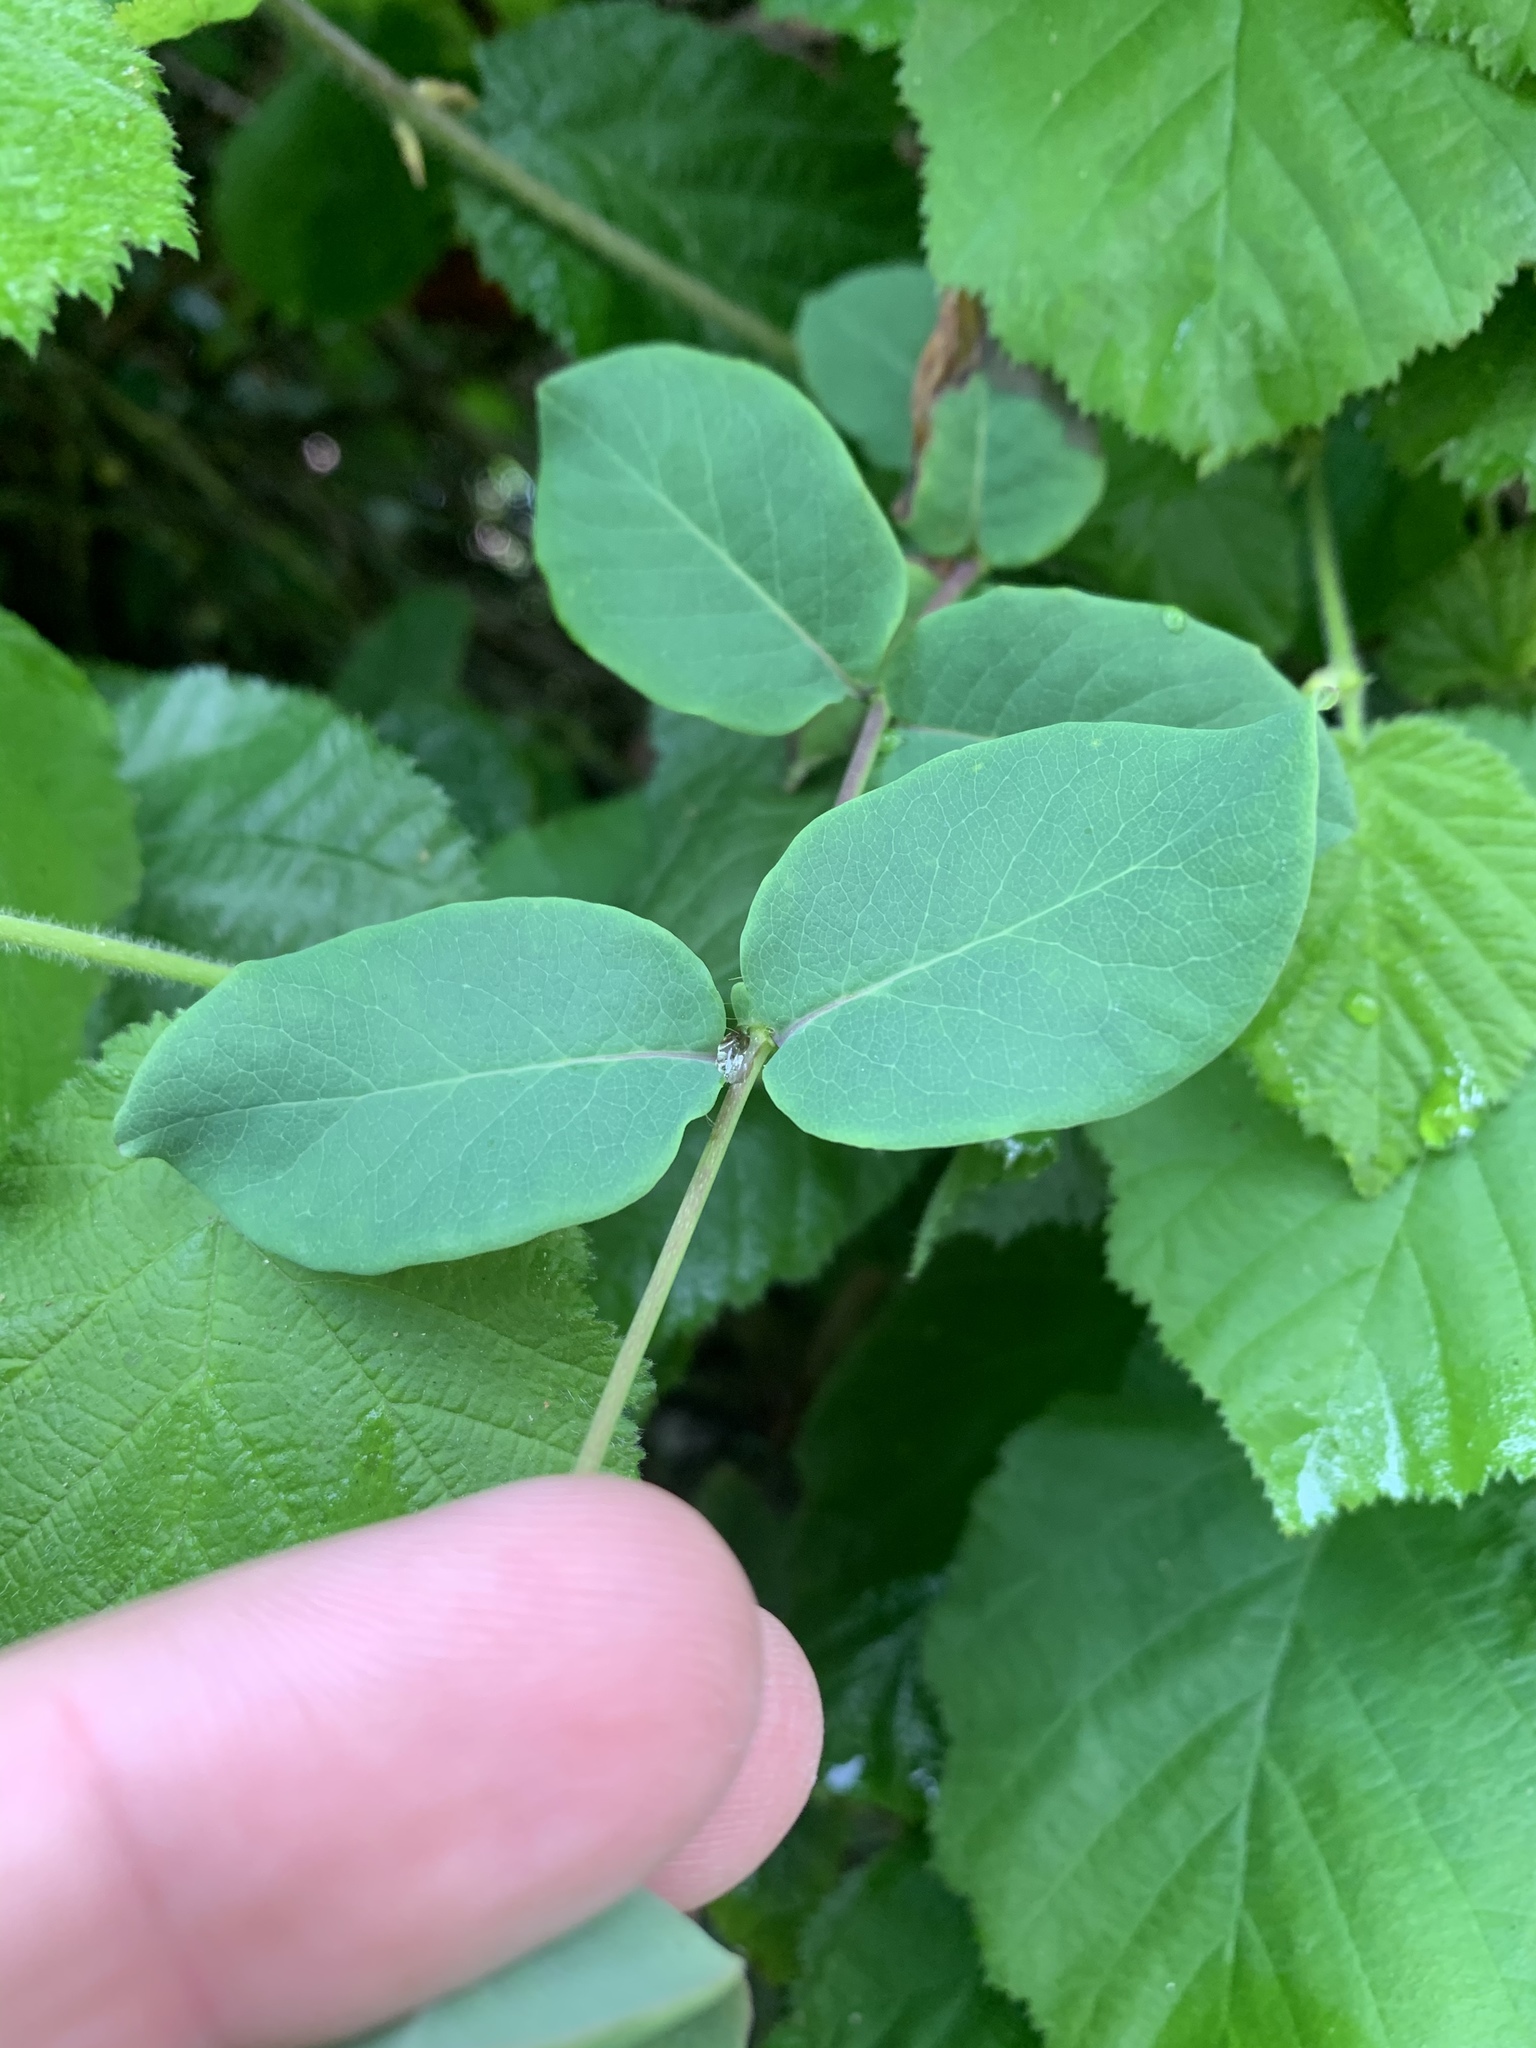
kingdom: Plantae
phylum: Tracheophyta
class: Magnoliopsida
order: Dipsacales
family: Caprifoliaceae
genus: Lonicera
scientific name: Lonicera hispidula
